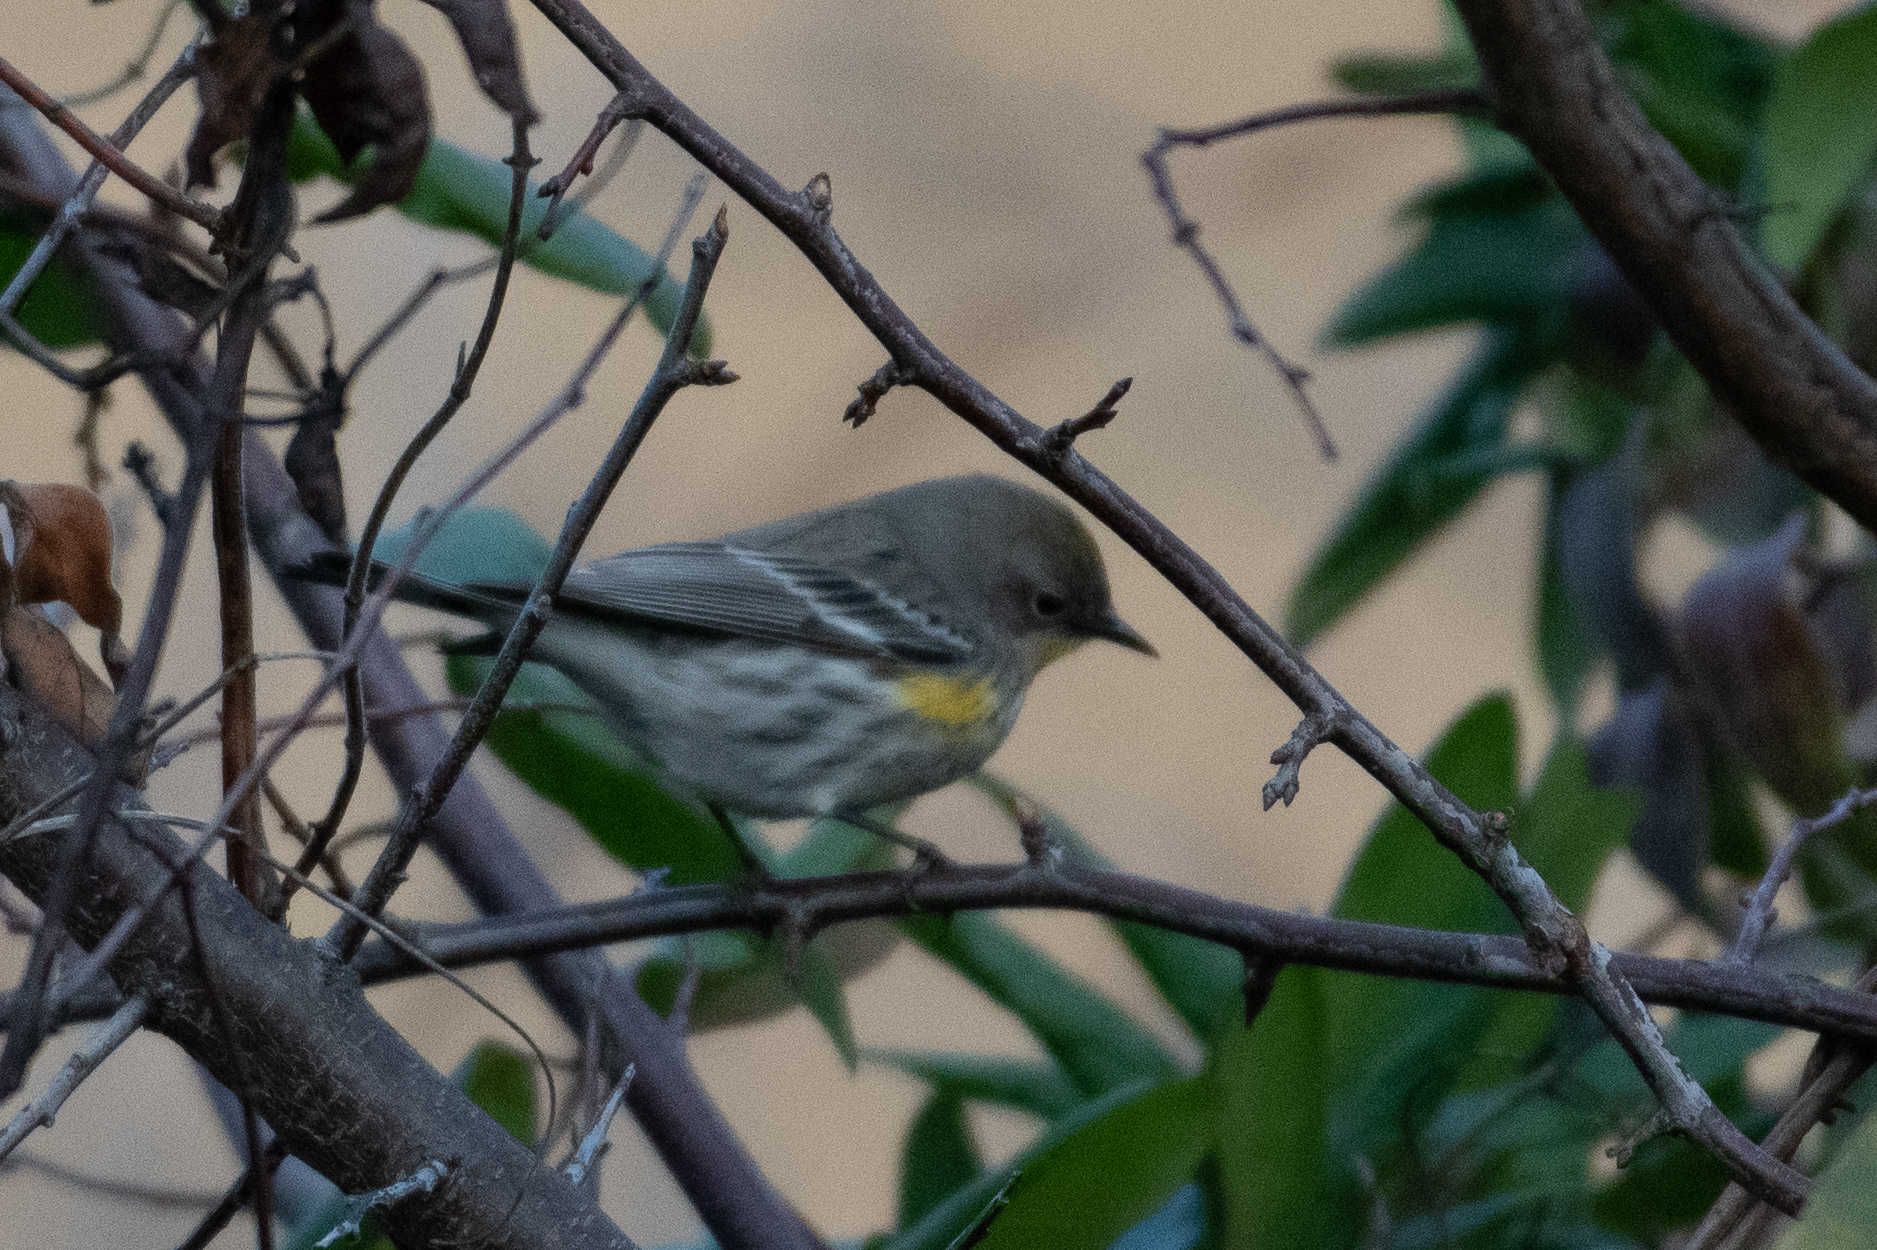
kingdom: Animalia
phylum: Chordata
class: Aves
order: Passeriformes
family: Parulidae
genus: Setophaga
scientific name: Setophaga coronata
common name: Myrtle warbler
